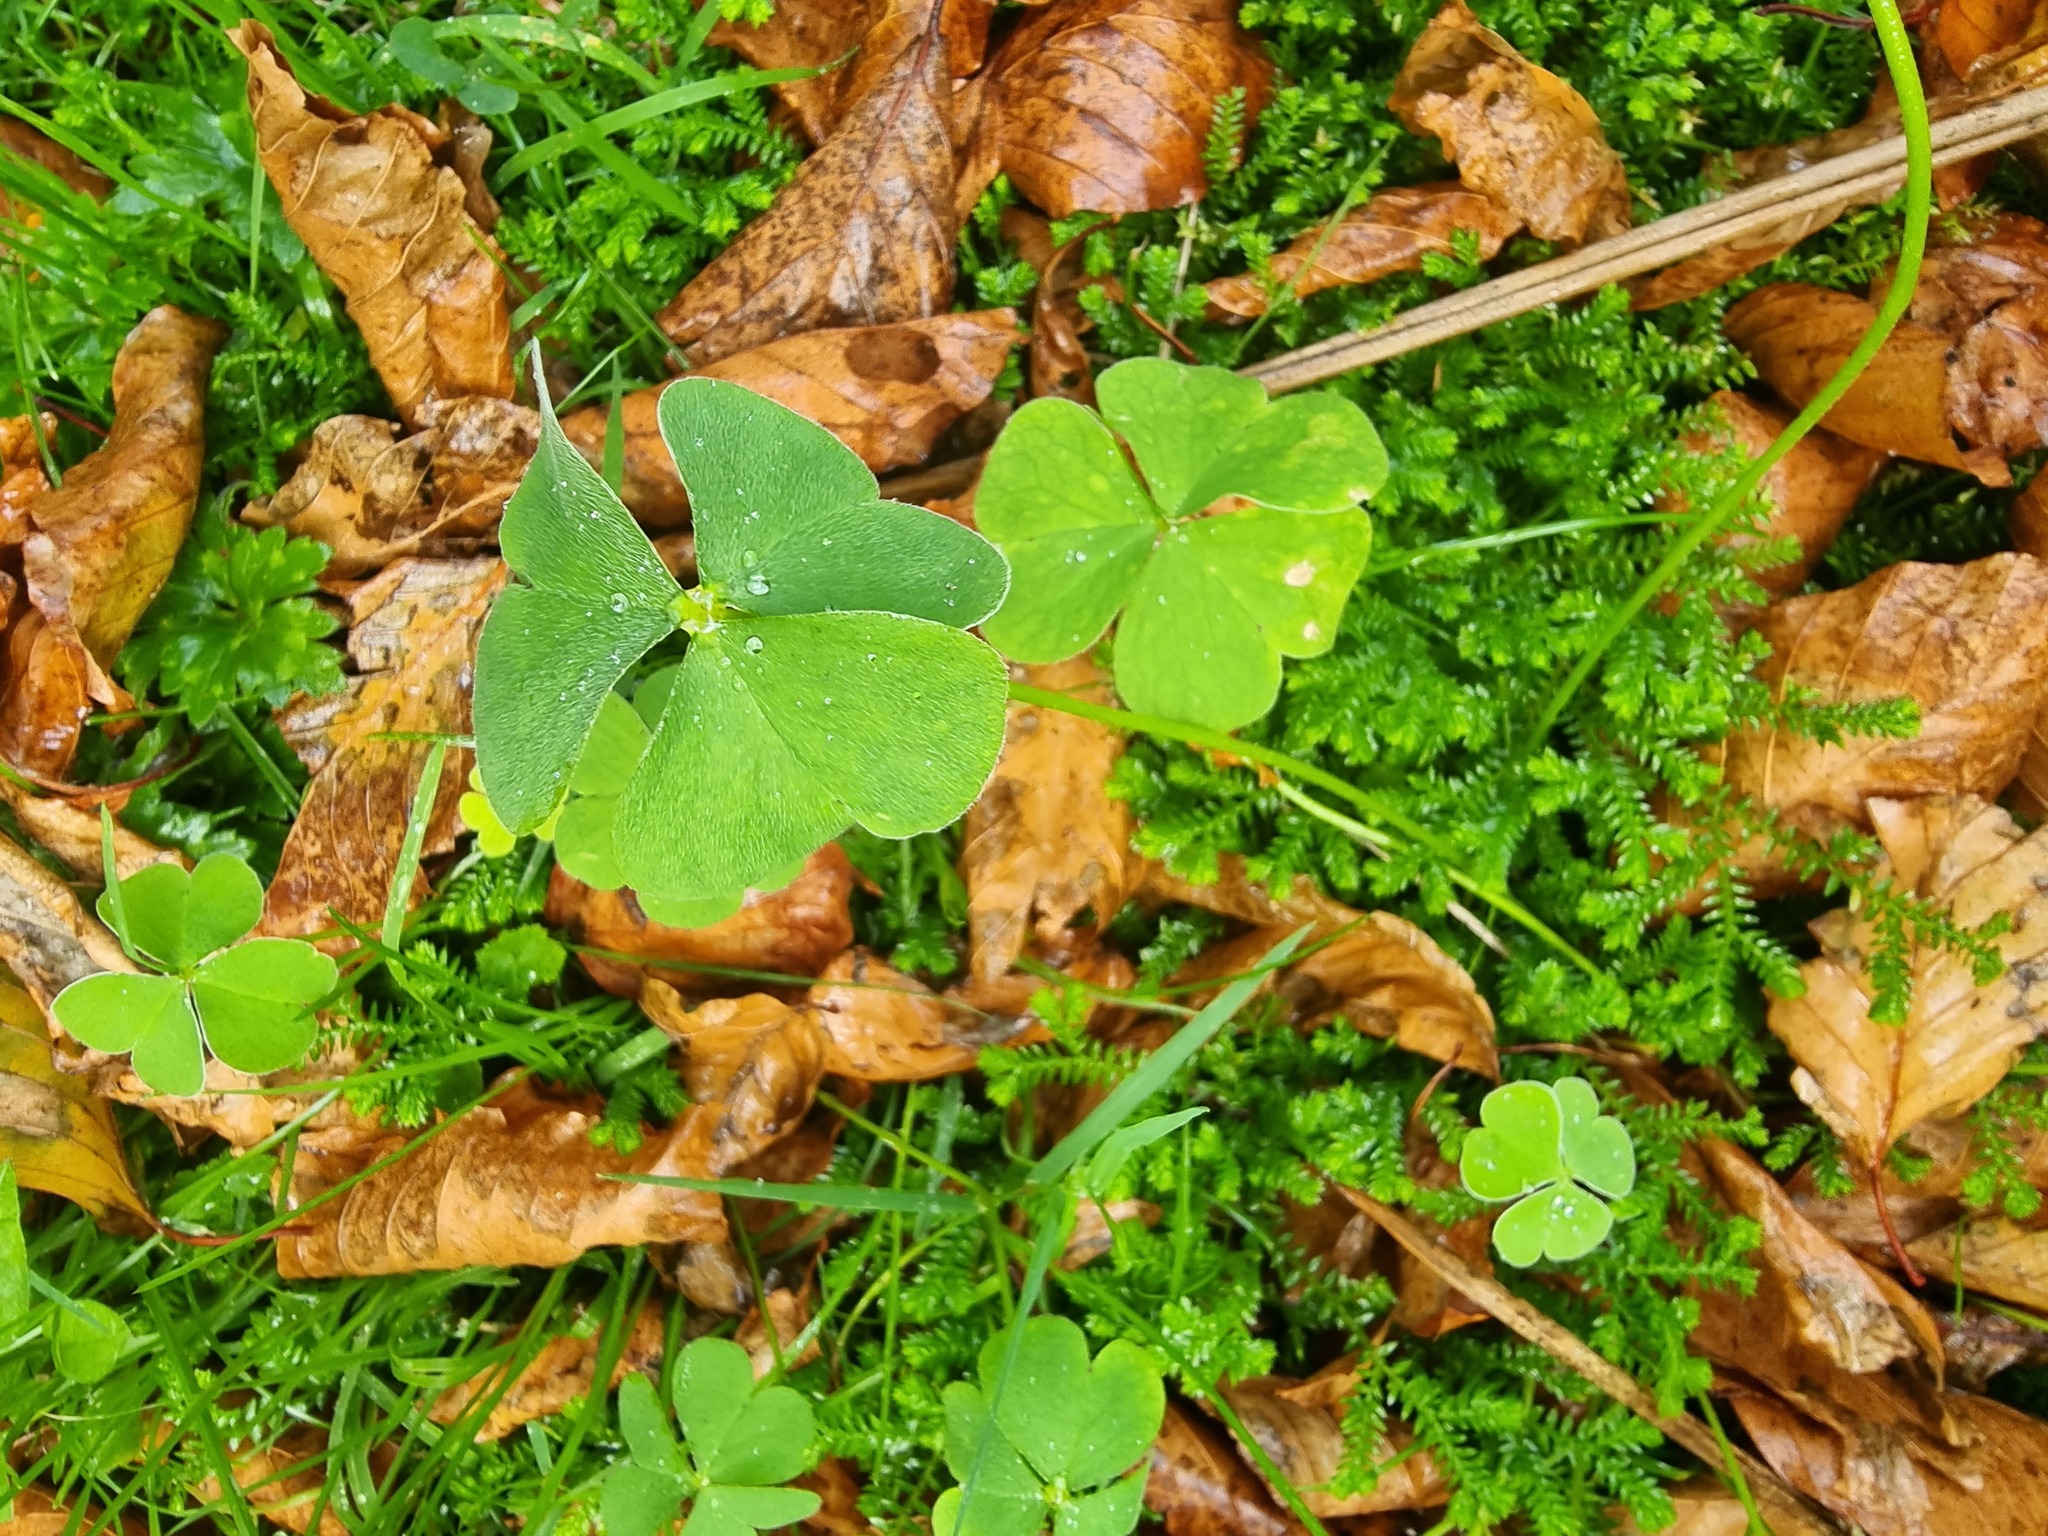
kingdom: Plantae
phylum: Tracheophyta
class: Magnoliopsida
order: Oxalidales
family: Oxalidaceae
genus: Oxalis
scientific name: Oxalis articulata
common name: Pink-sorrel
